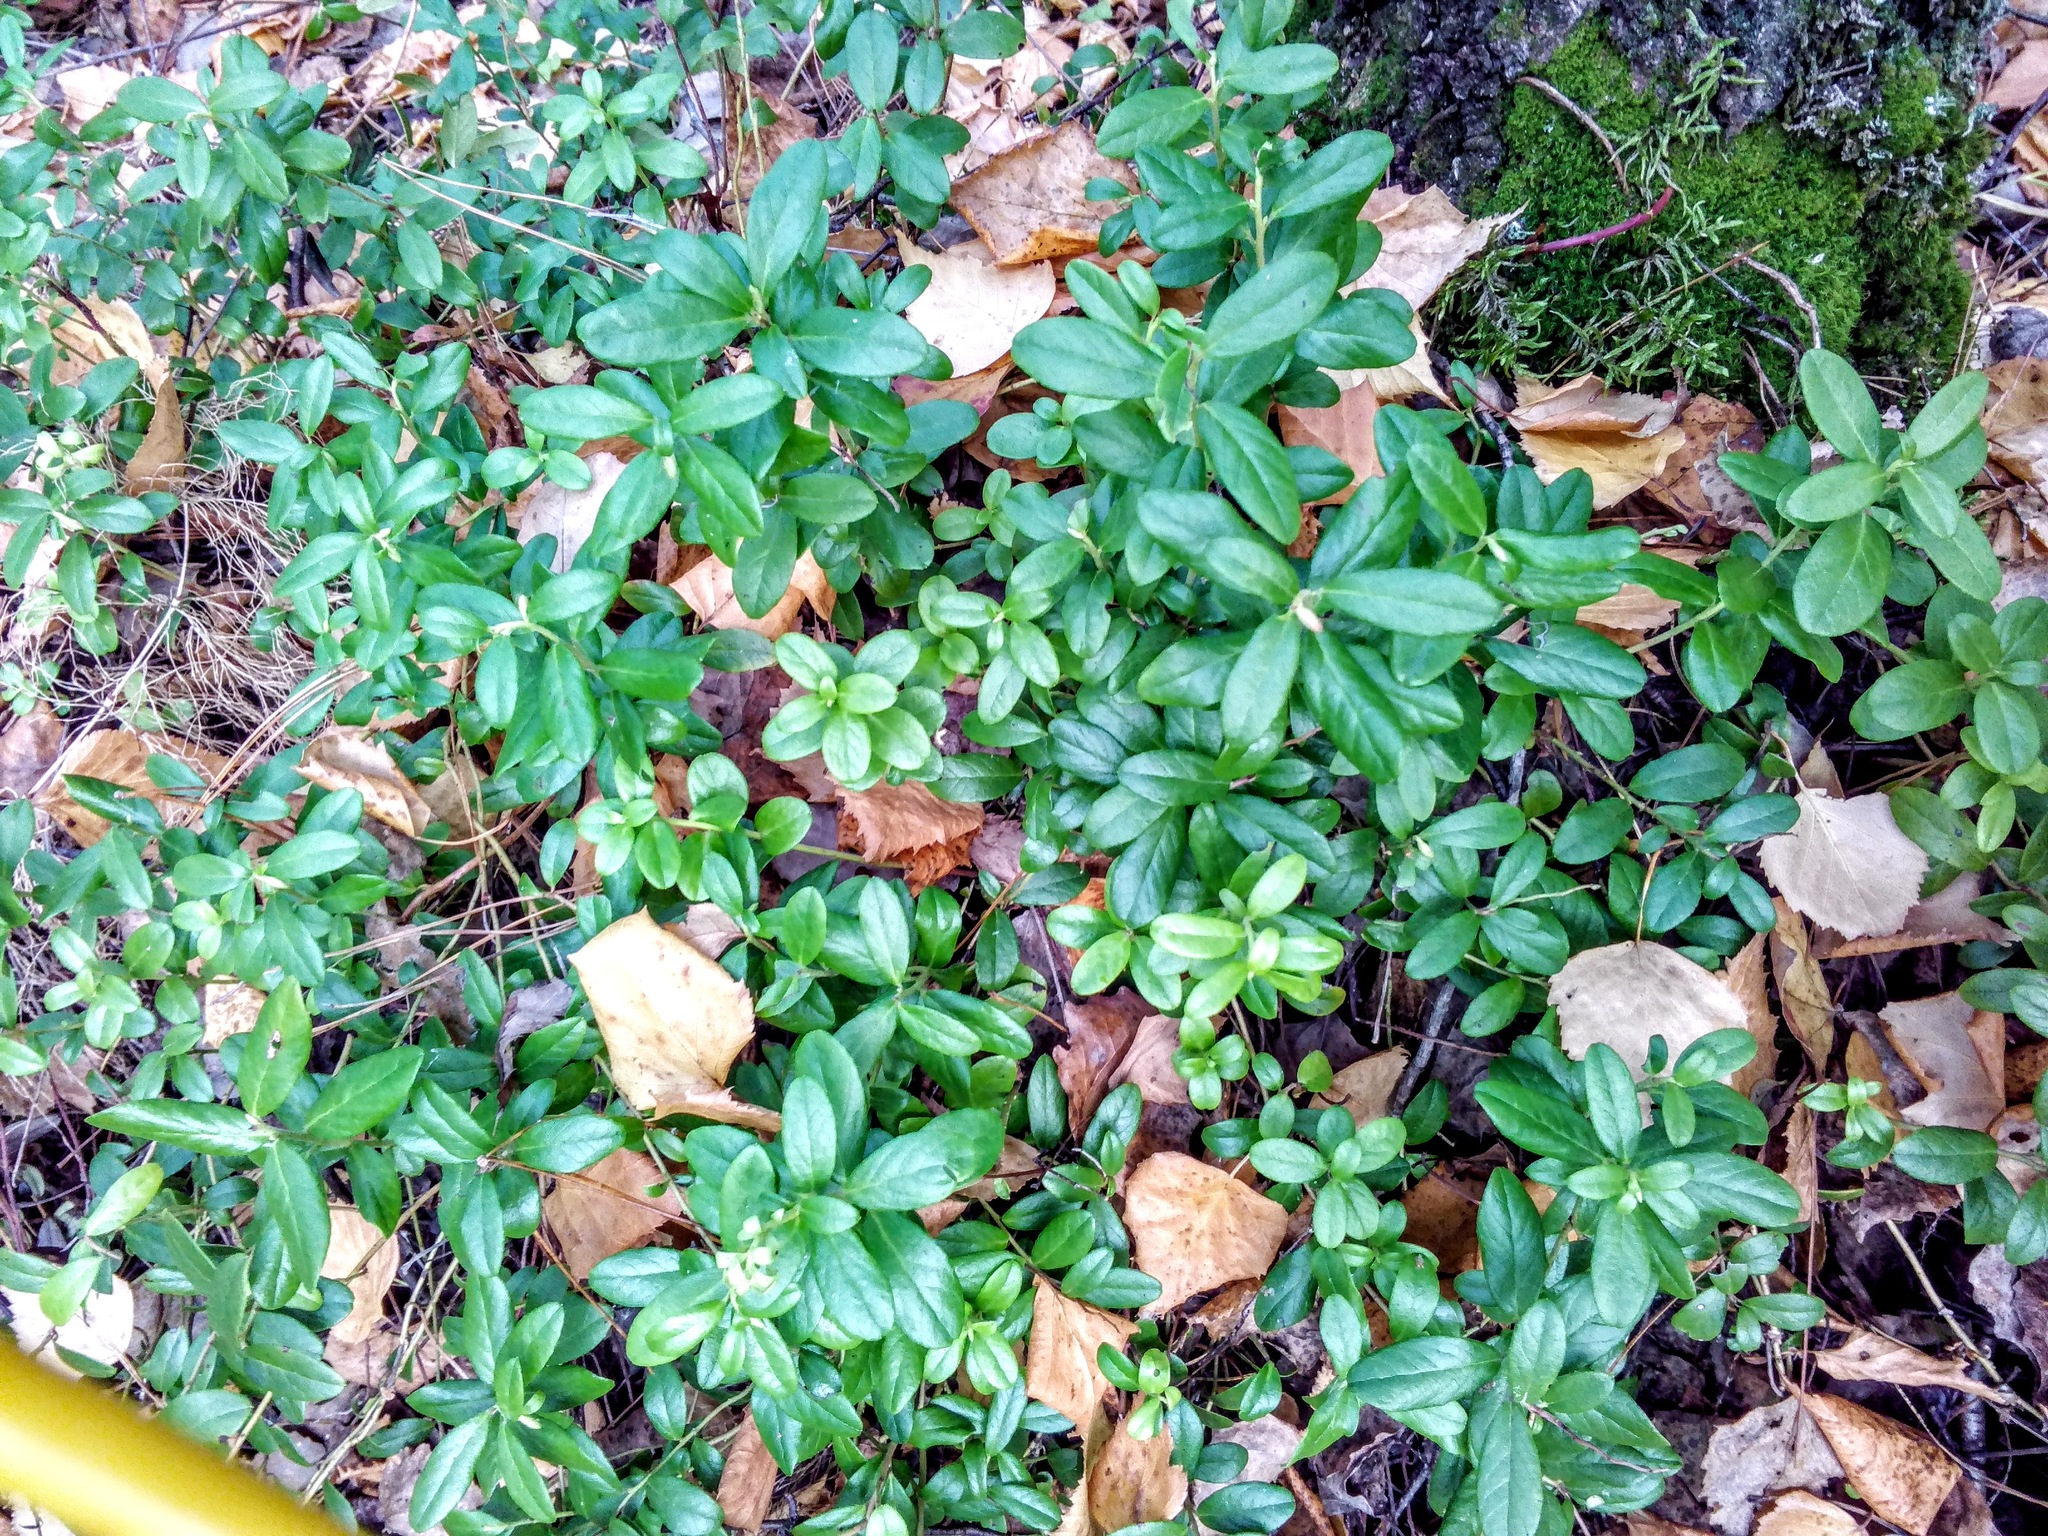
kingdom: Plantae
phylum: Tracheophyta
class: Magnoliopsida
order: Ericales
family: Ericaceae
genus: Vaccinium
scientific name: Vaccinium vitis-idaea
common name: Cowberry
